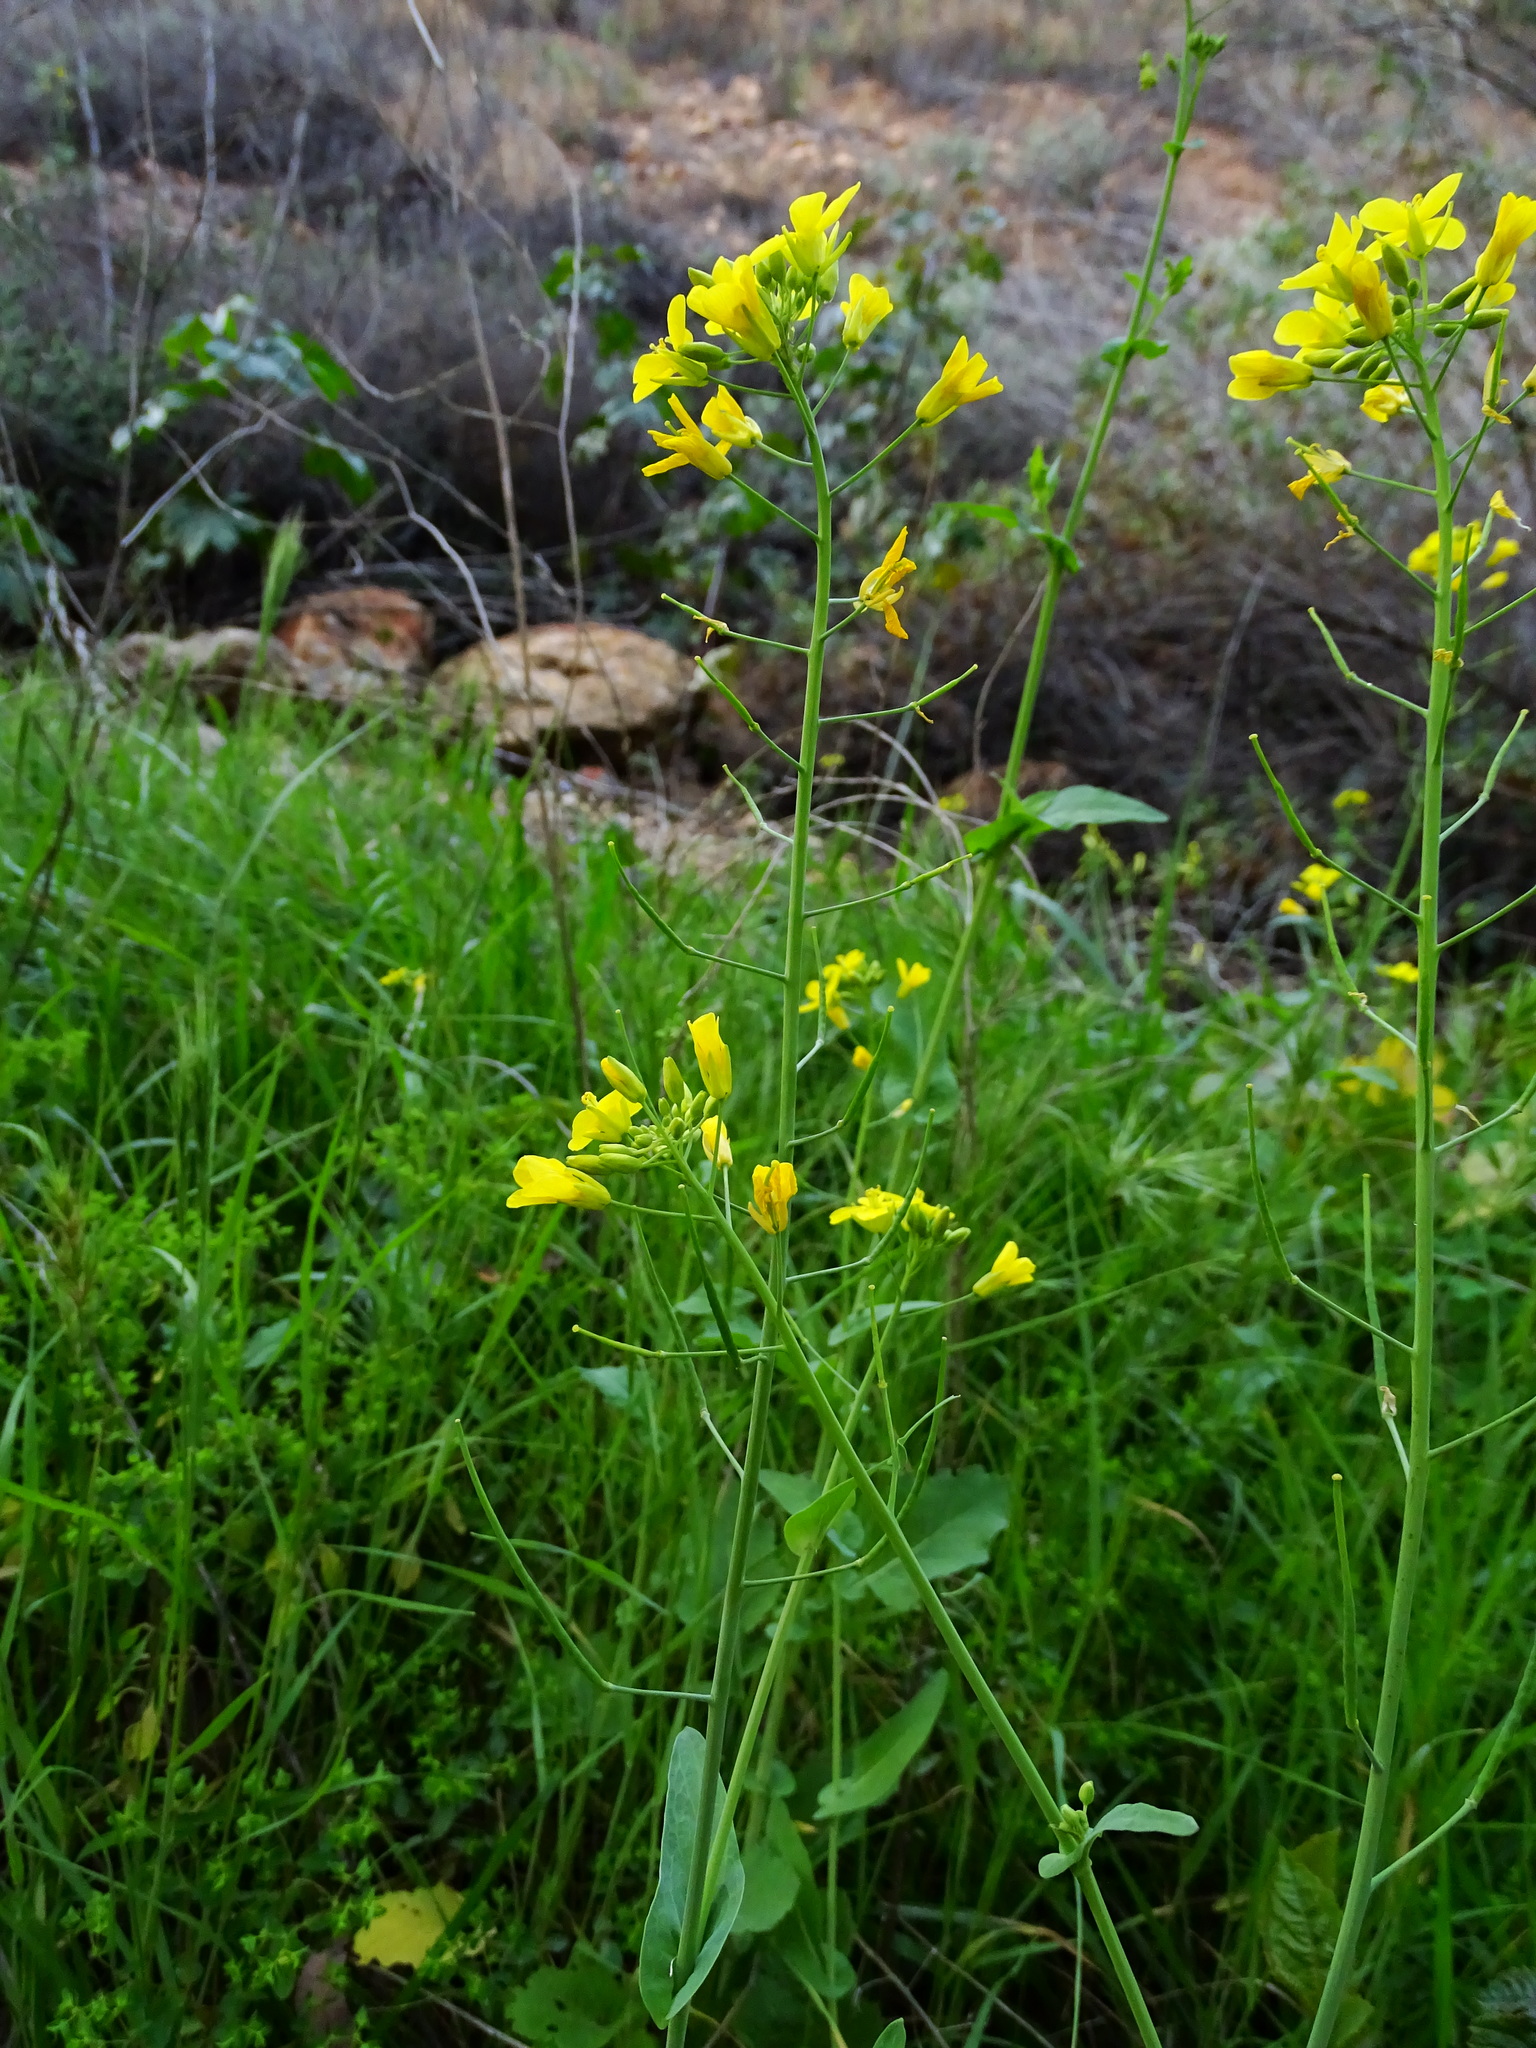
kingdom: Plantae
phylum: Tracheophyta
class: Magnoliopsida
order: Brassicales
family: Brassicaceae
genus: Brassica
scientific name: Brassica rapa
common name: Field mustard
